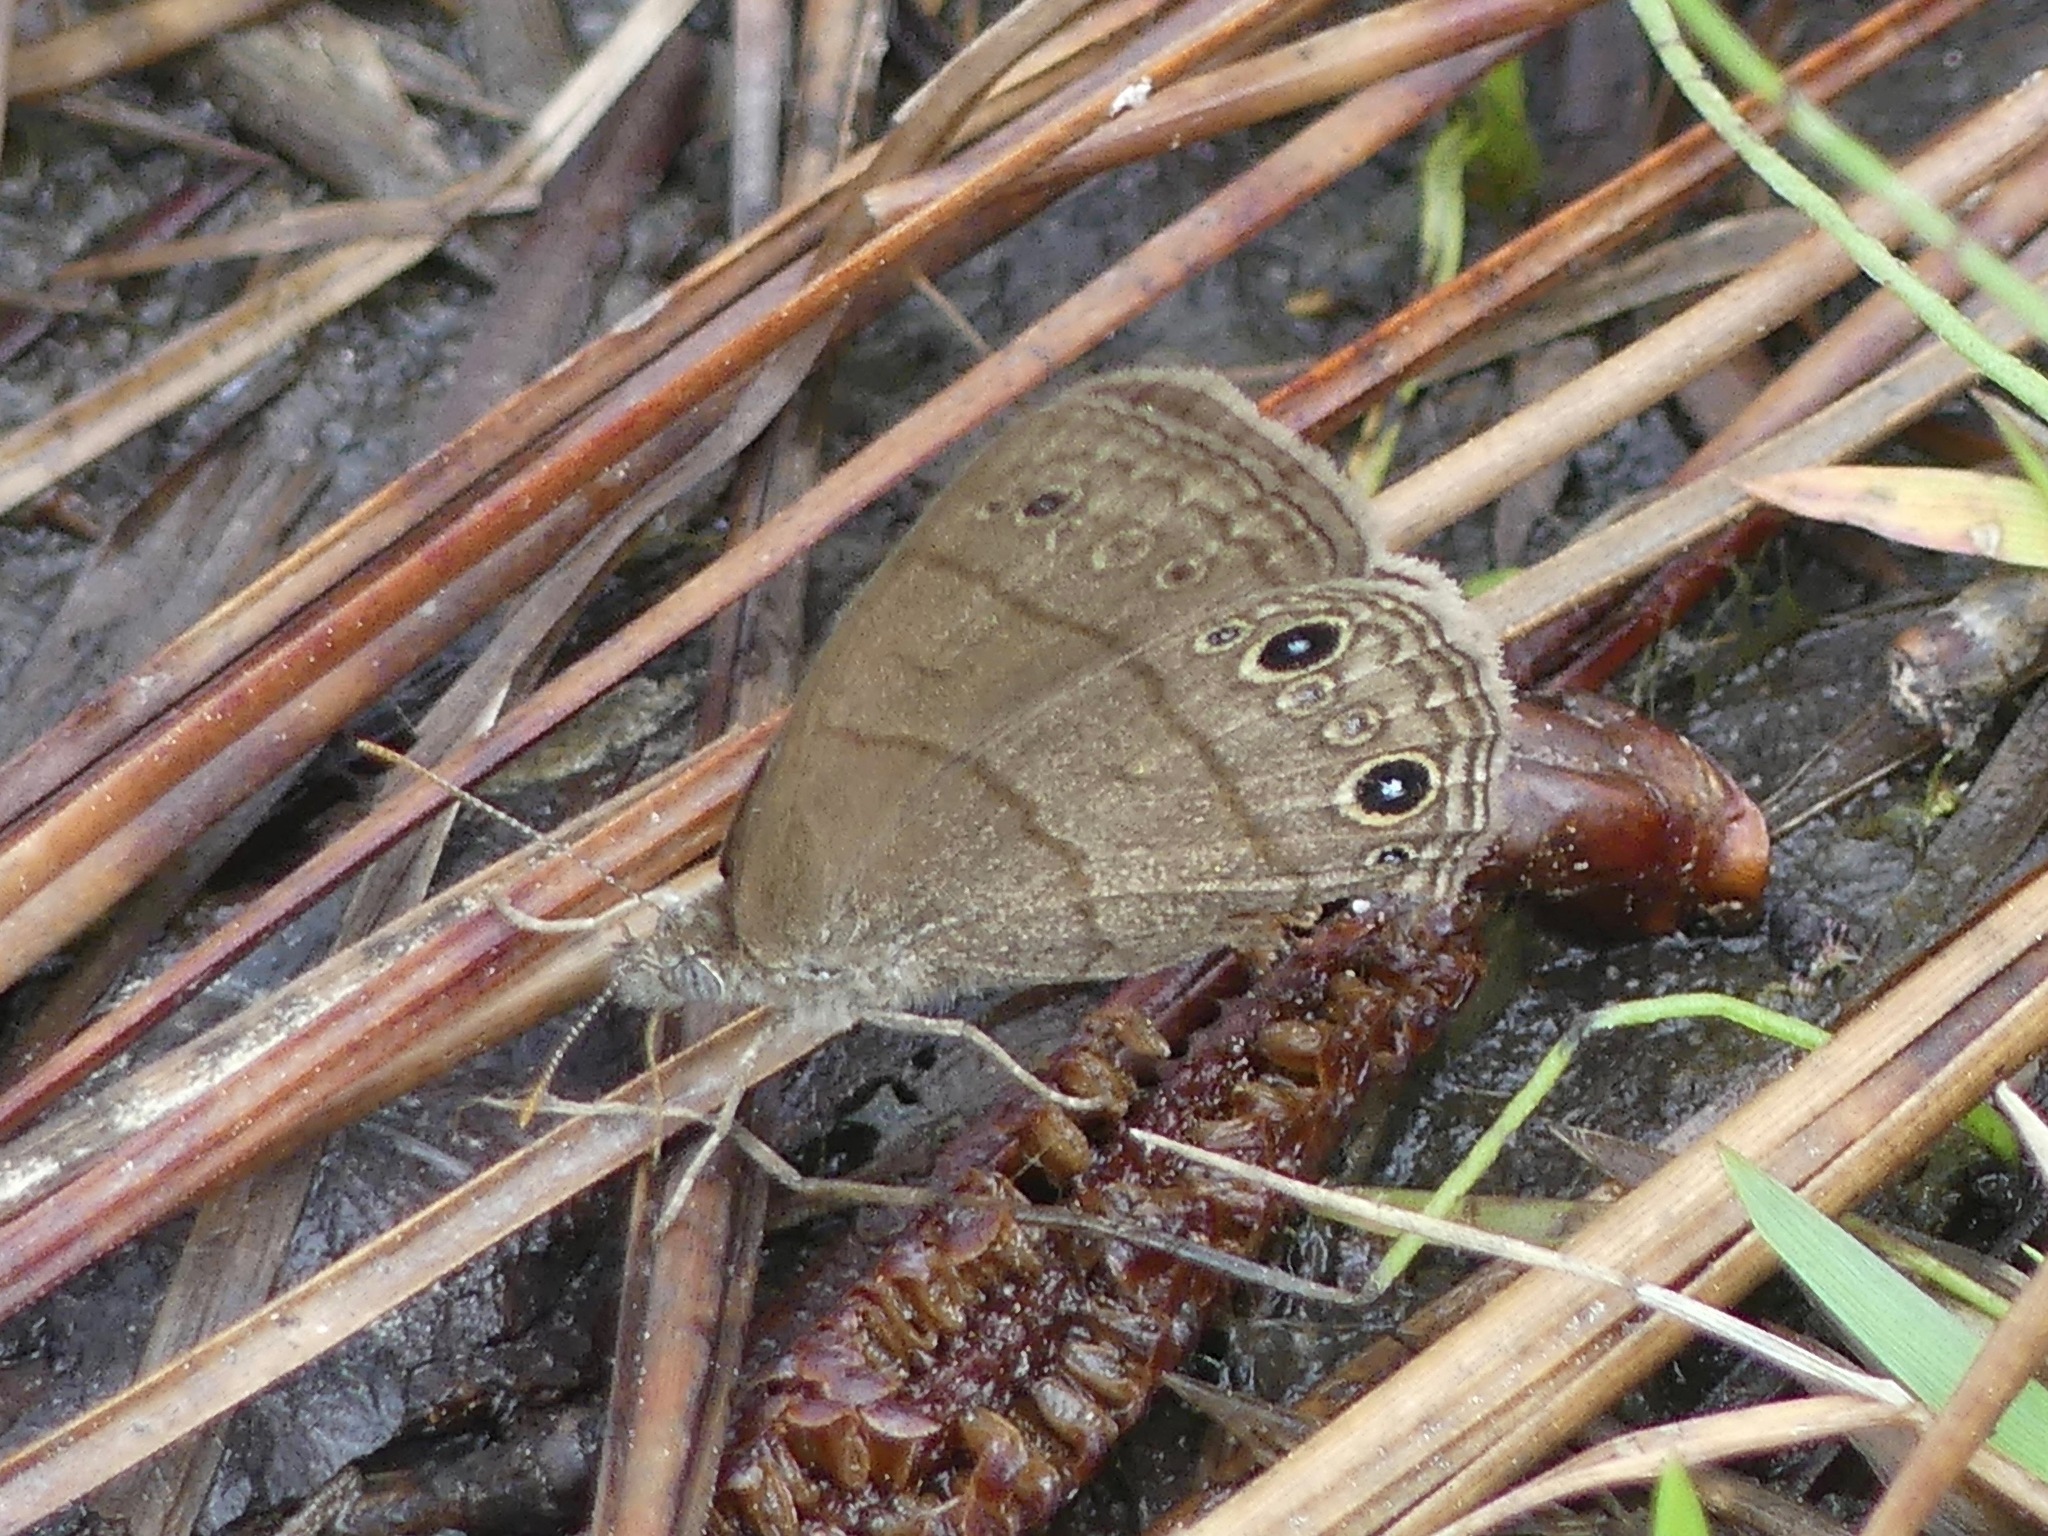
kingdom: Animalia
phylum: Arthropoda
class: Insecta
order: Lepidoptera
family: Nymphalidae
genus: Hermeuptychia
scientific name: Hermeuptychia hermes
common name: Hermes satyr
